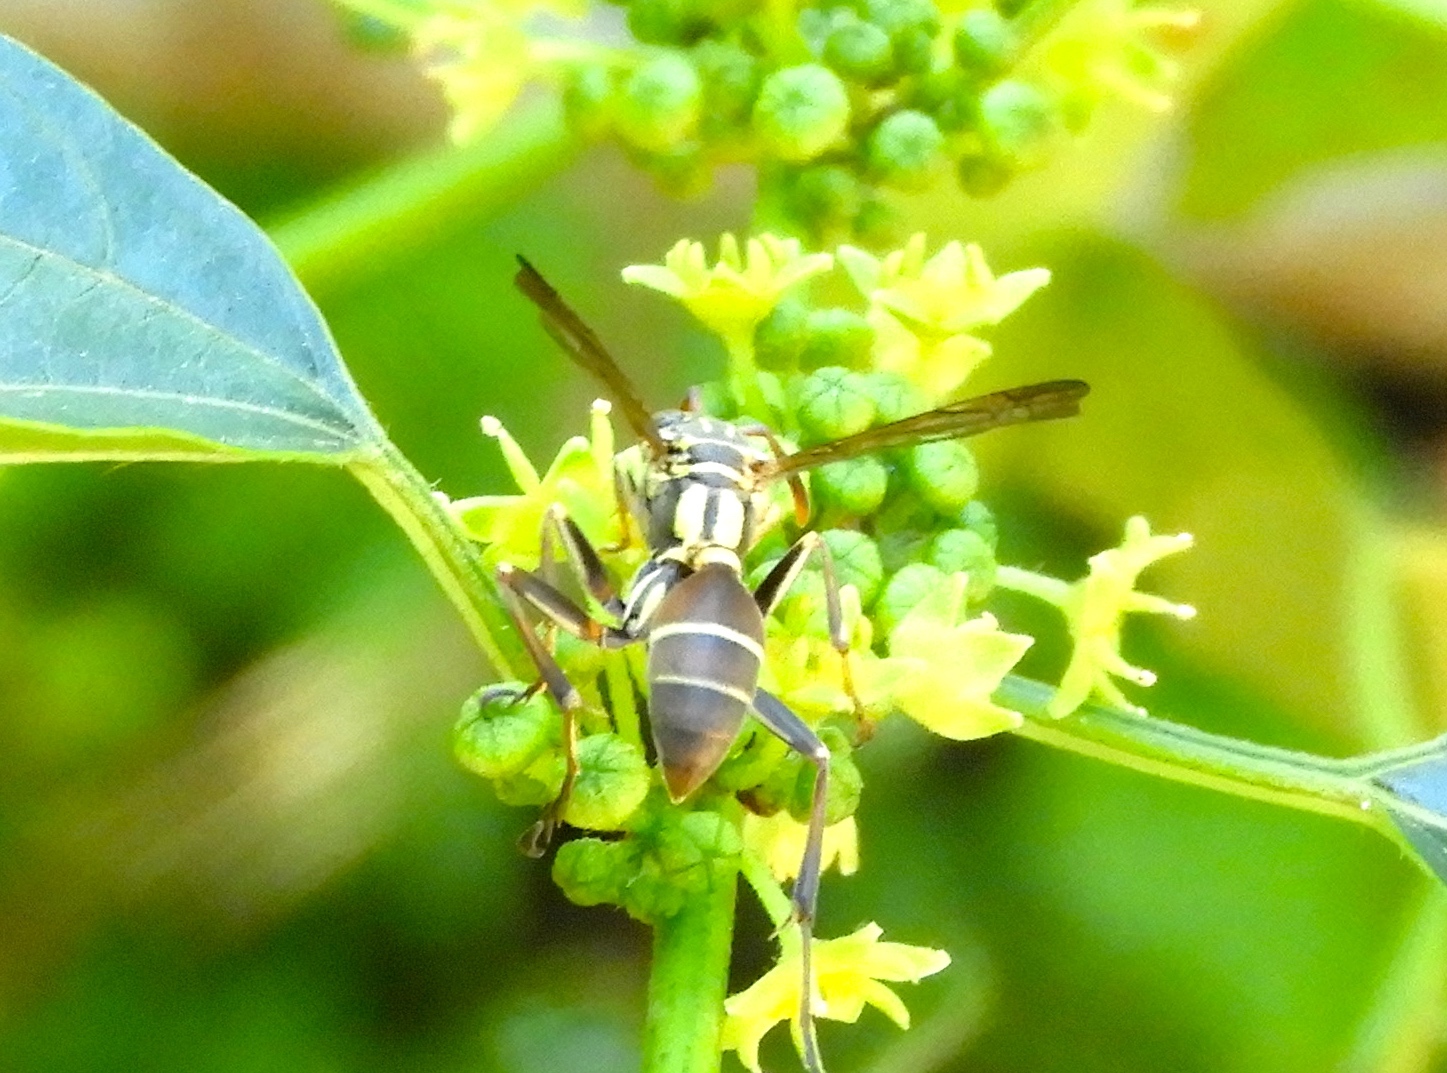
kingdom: Animalia
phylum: Arthropoda
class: Insecta
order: Hymenoptera
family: Vespidae
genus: Mischocyttarus
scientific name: Mischocyttarus
